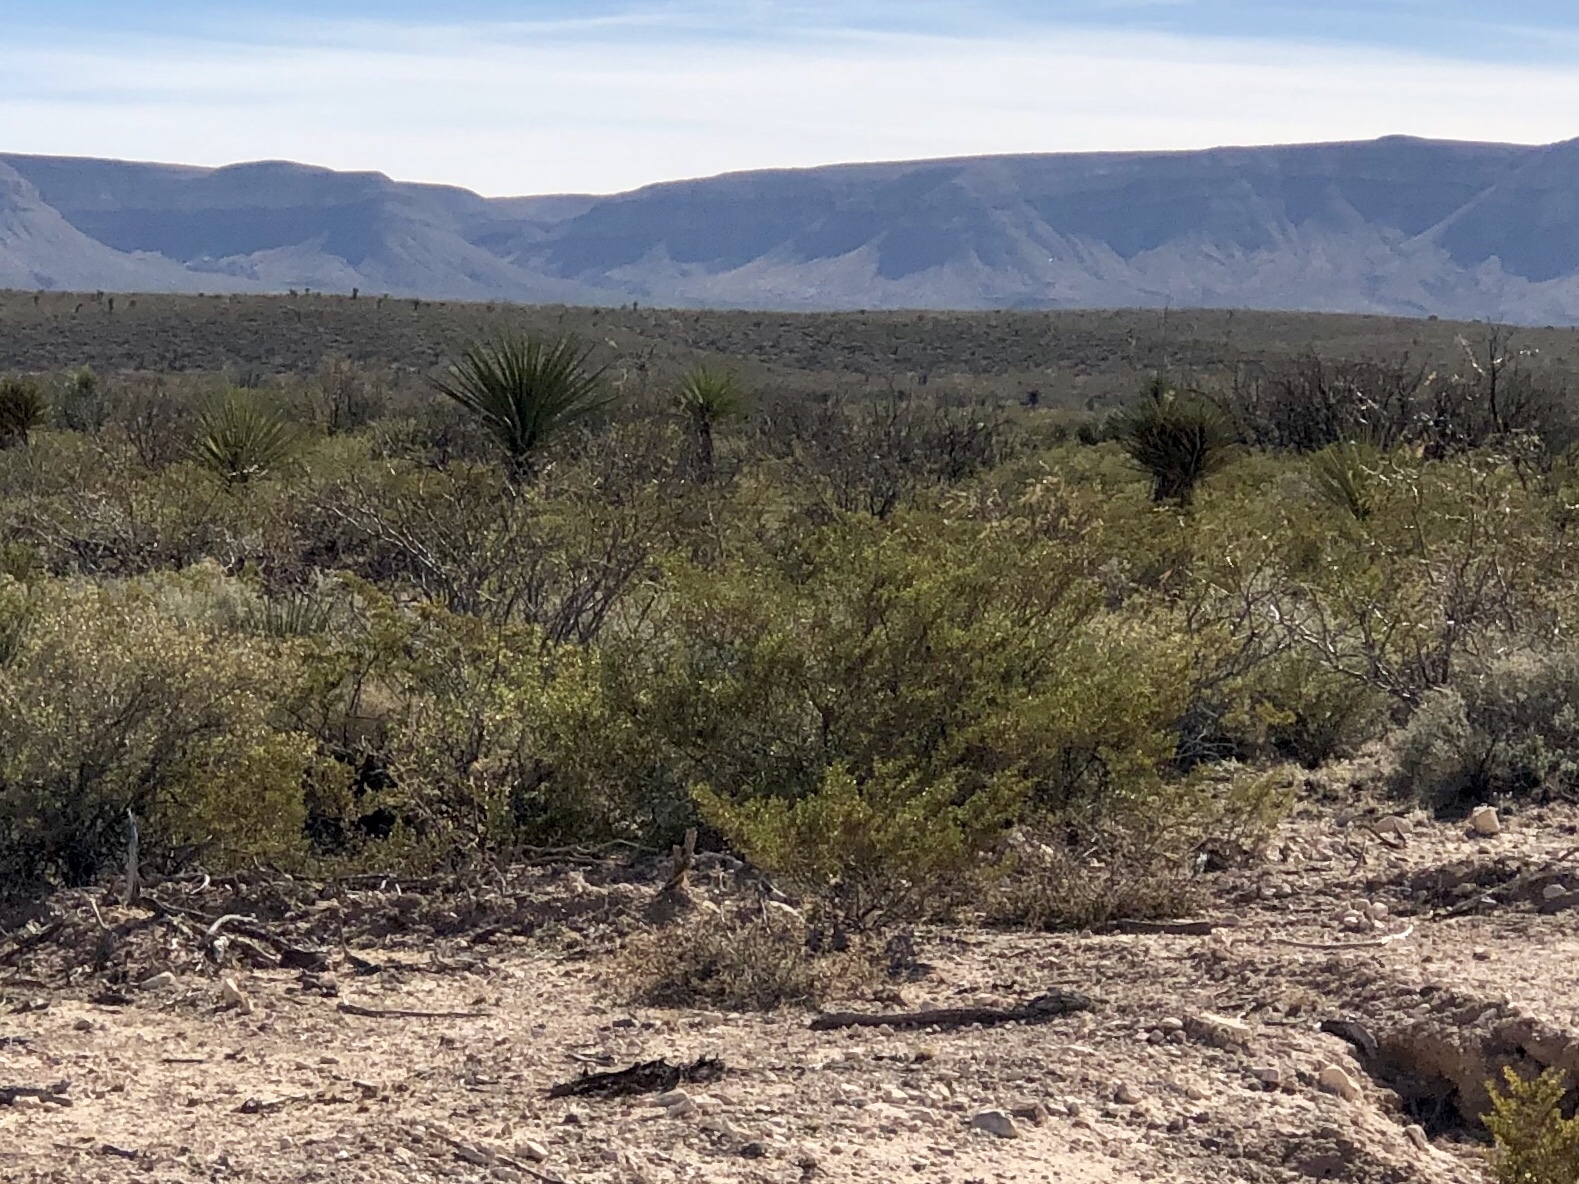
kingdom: Plantae
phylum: Tracheophyta
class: Magnoliopsida
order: Zygophyllales
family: Zygophyllaceae
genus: Larrea
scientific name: Larrea tridentata
